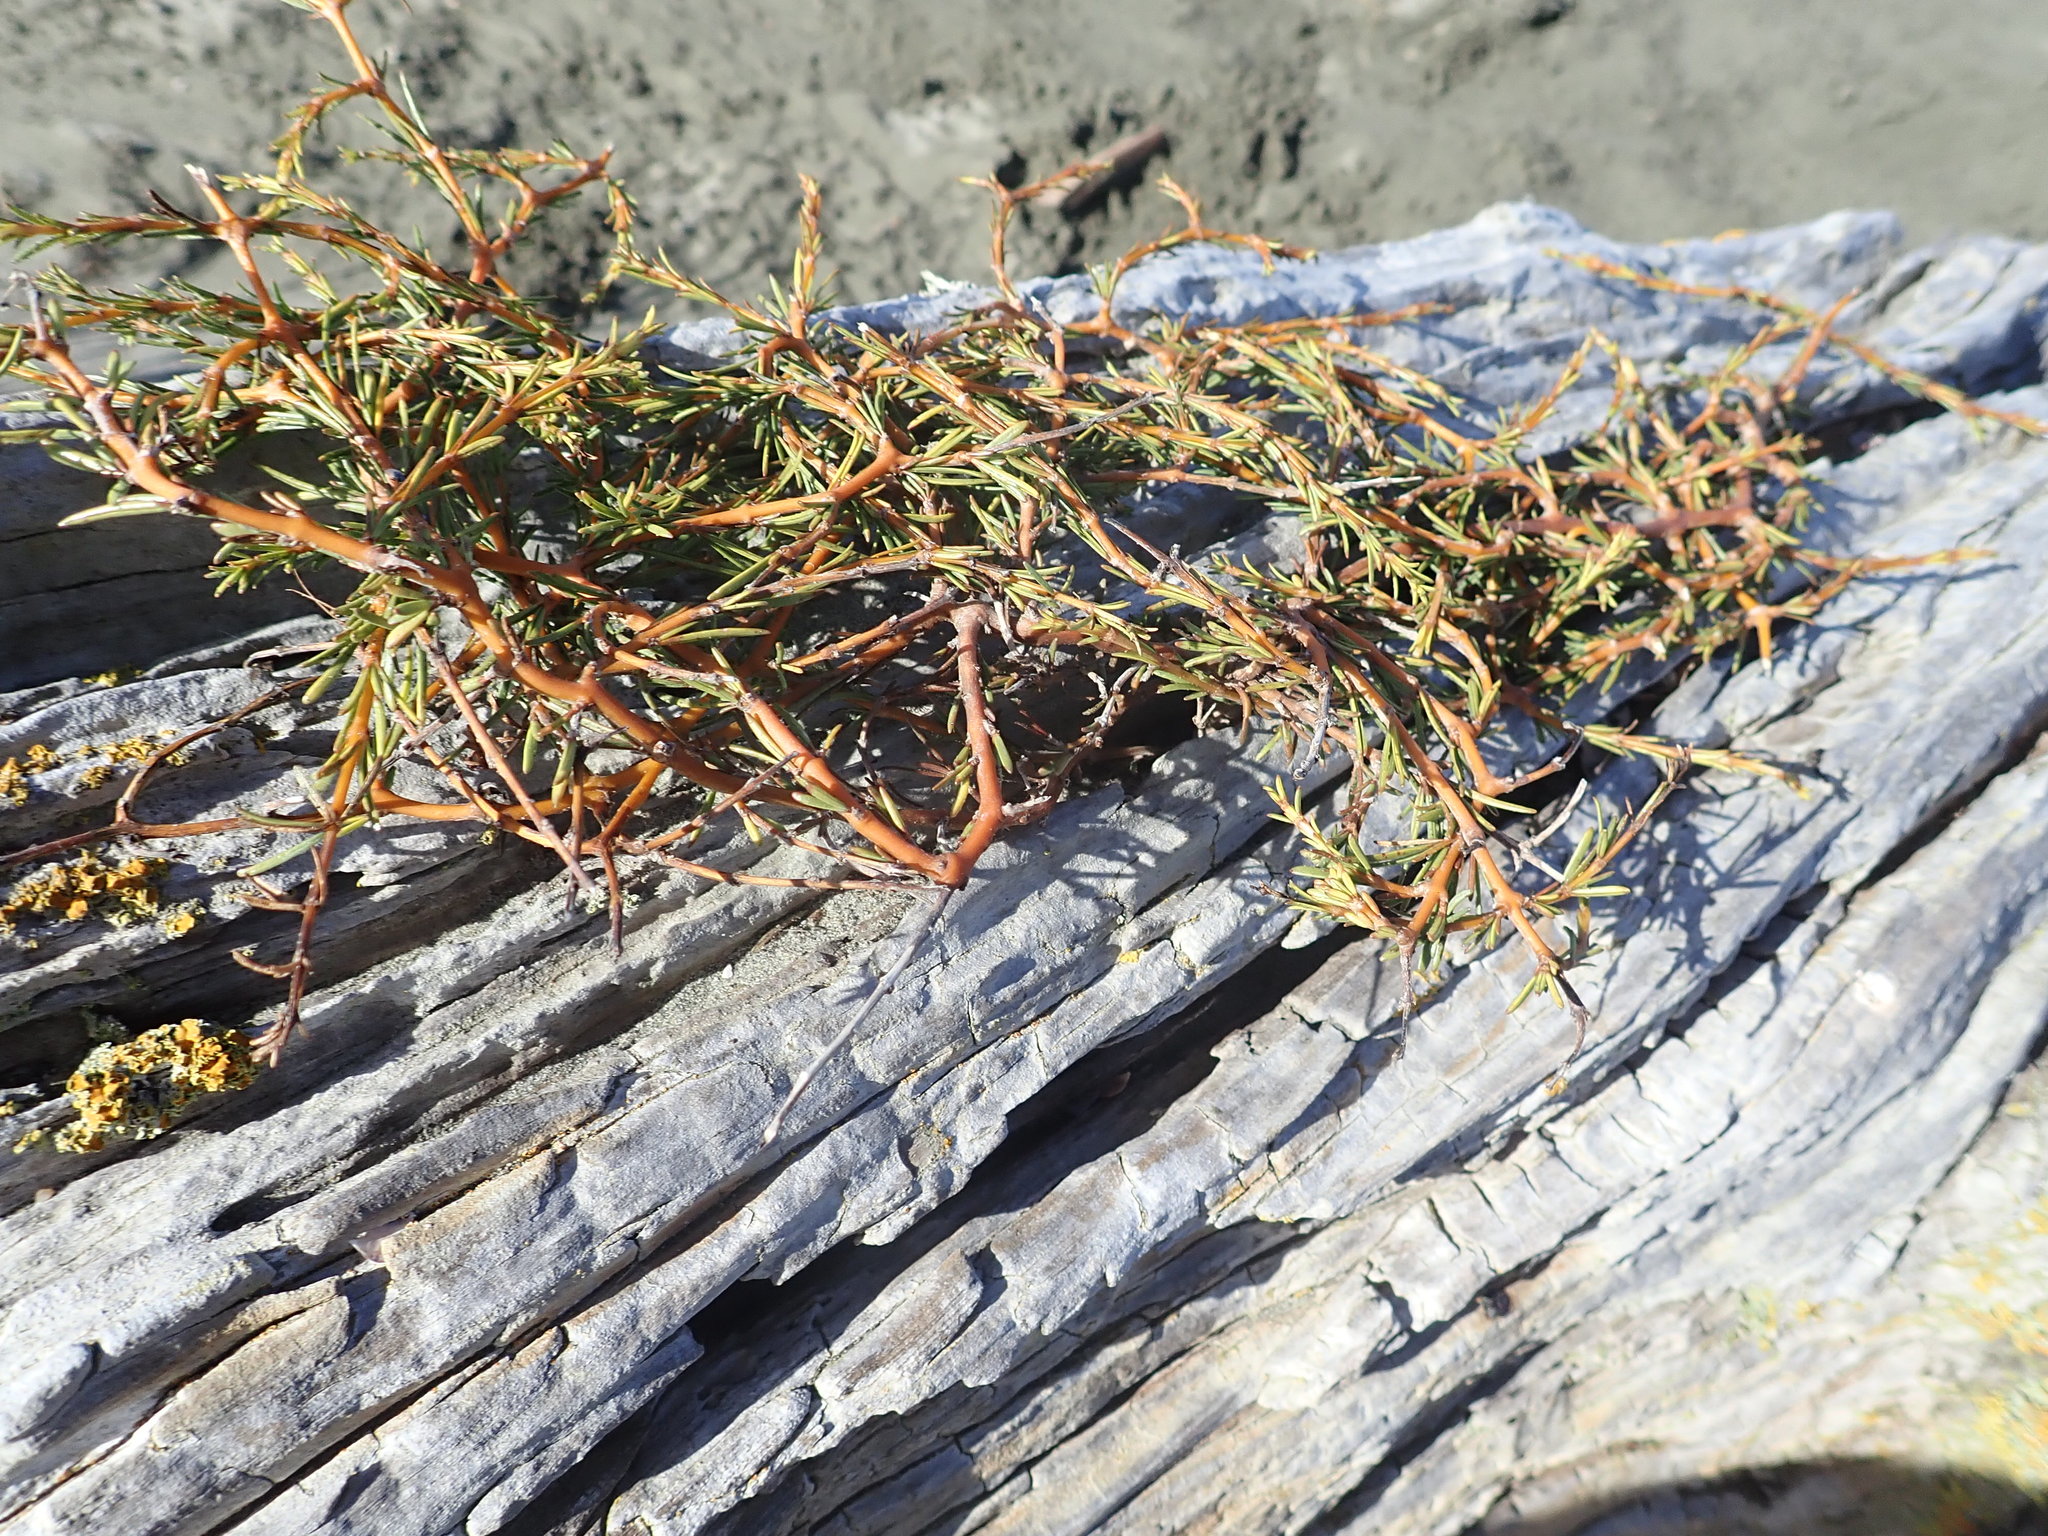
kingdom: Plantae
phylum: Tracheophyta
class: Magnoliopsida
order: Gentianales
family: Rubiaceae
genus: Coprosma
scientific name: Coprosma acerosa
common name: Sand coprosma
